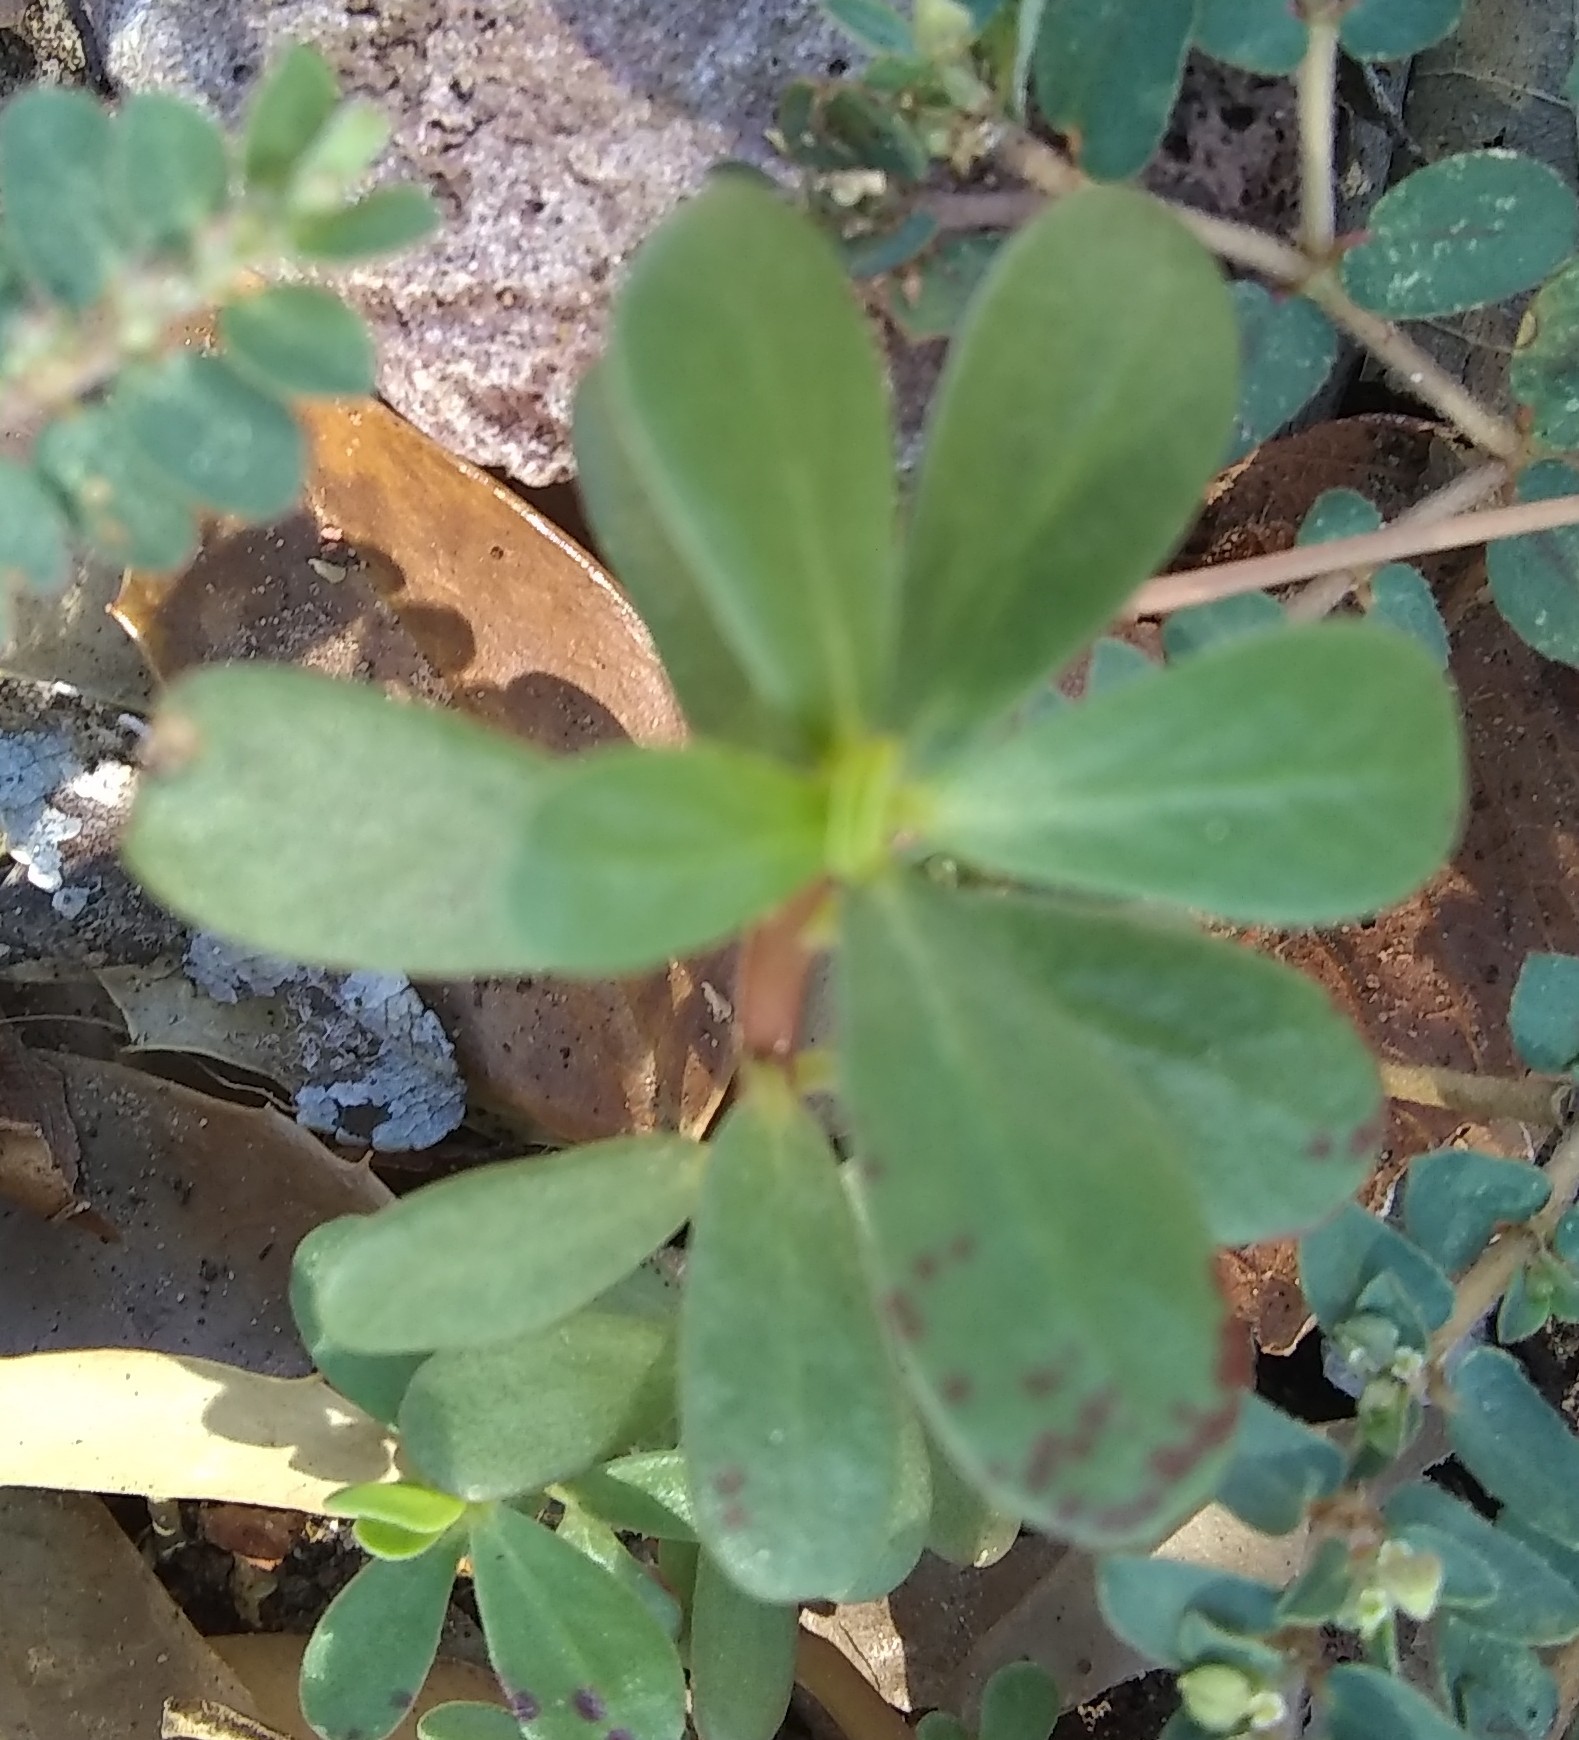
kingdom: Plantae
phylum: Tracheophyta
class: Magnoliopsida
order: Caryophyllales
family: Portulacaceae
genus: Portulaca
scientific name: Portulaca oleracea
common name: Common purslane
